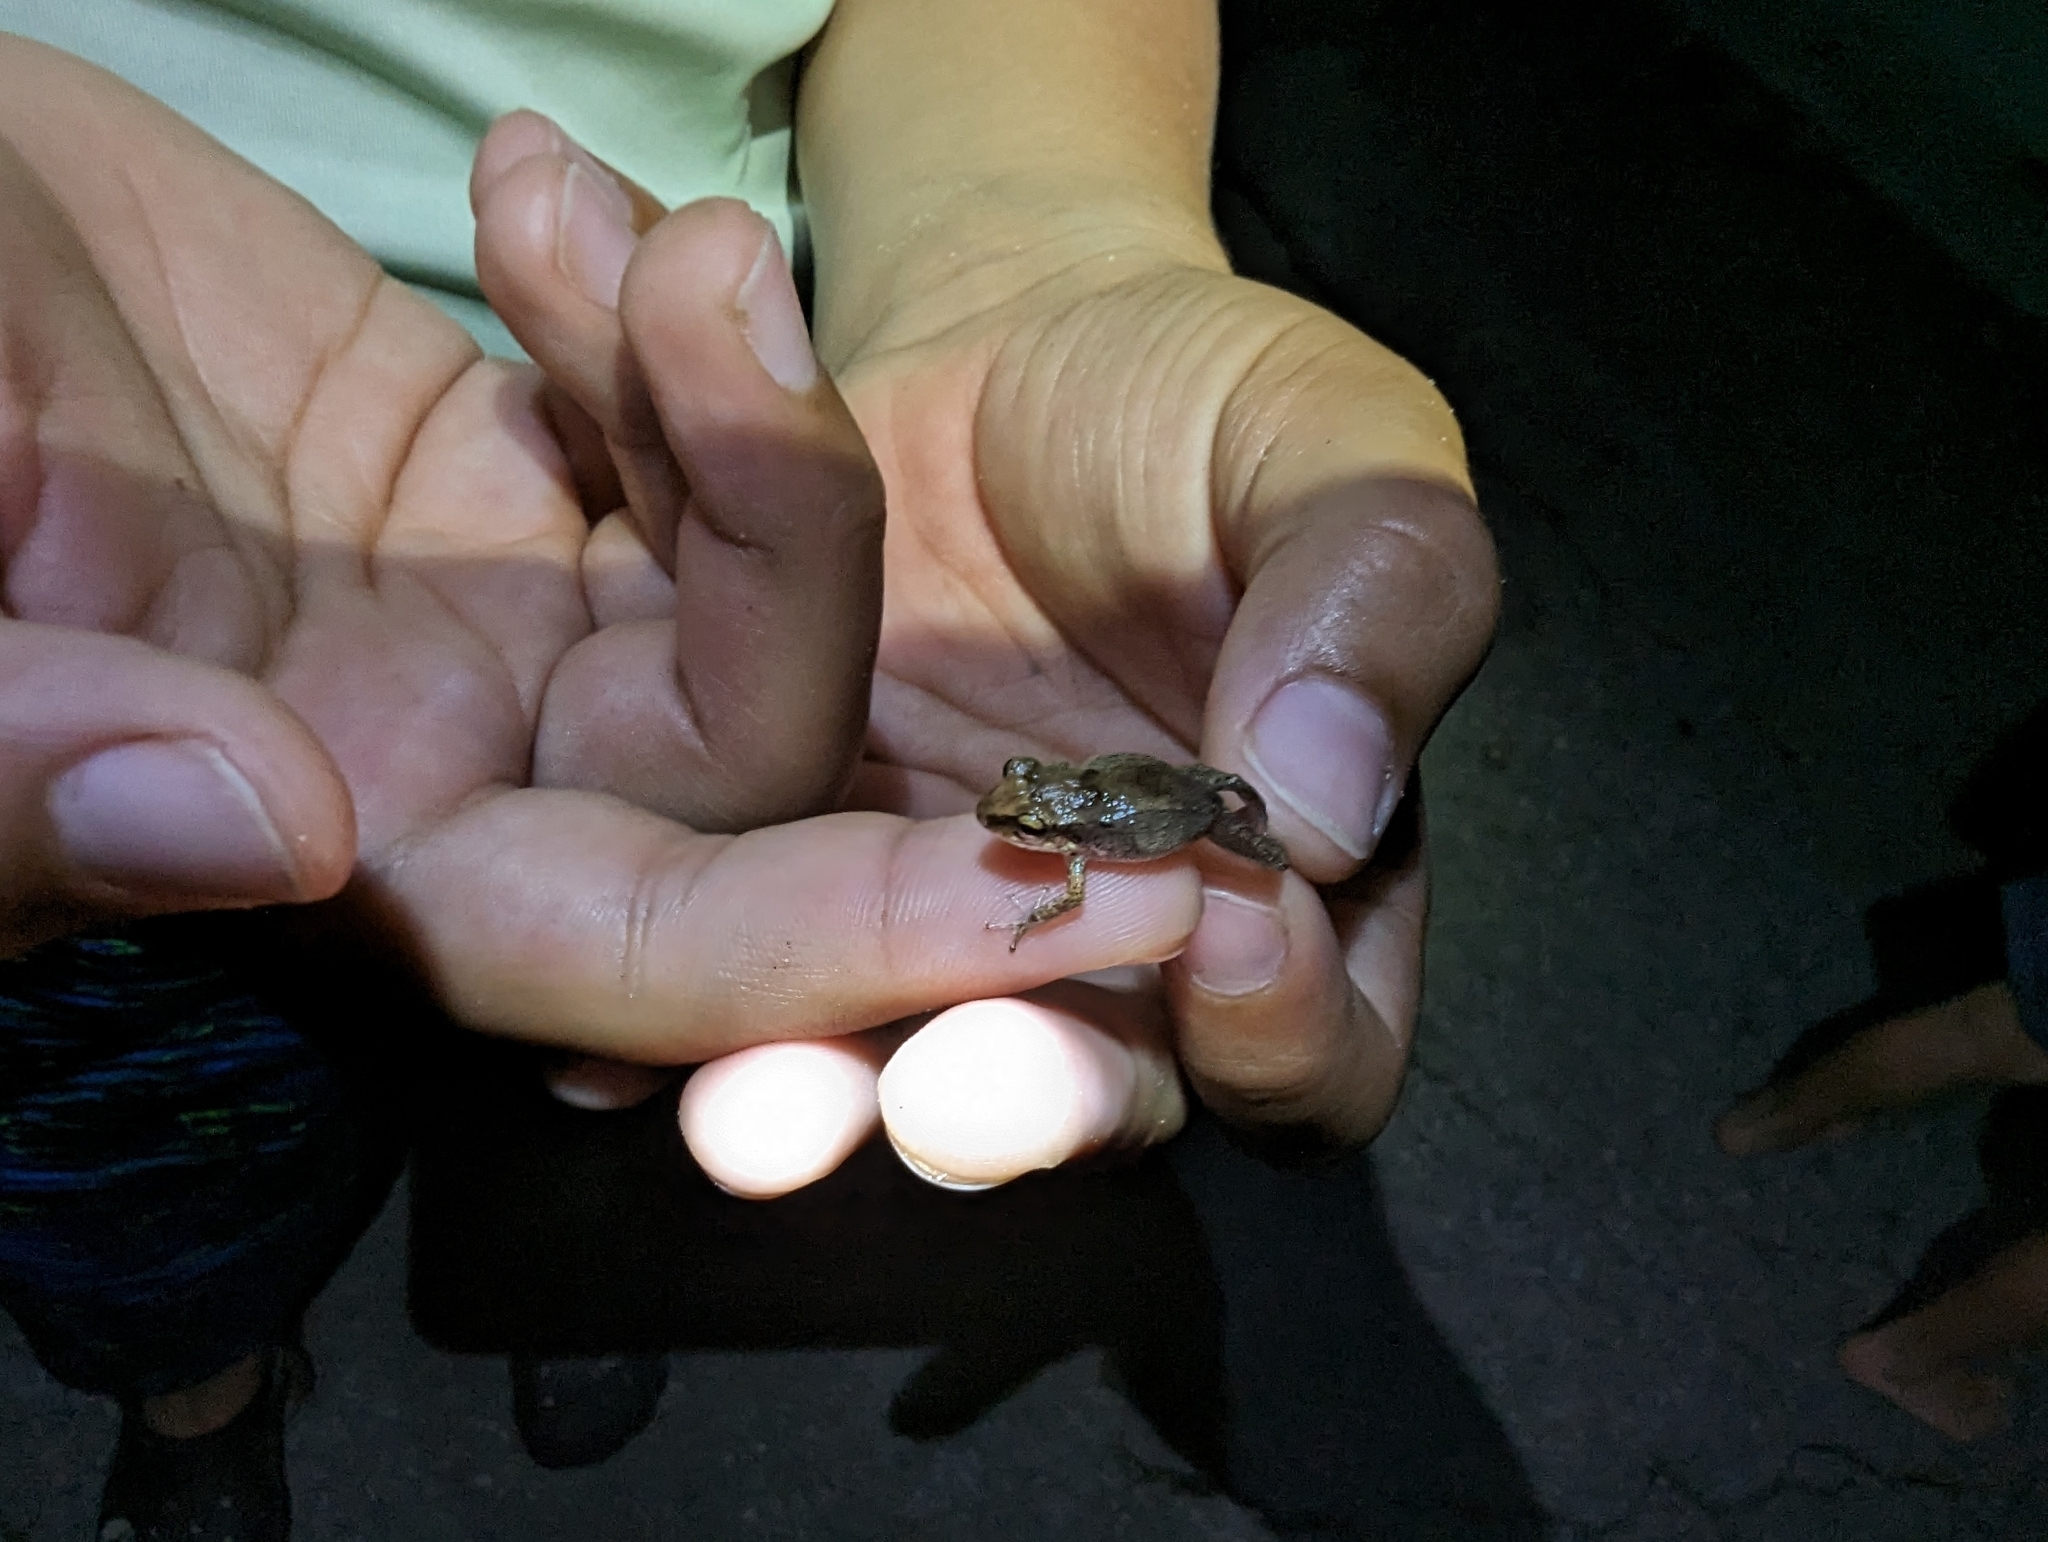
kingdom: Animalia
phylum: Chordata
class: Amphibia
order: Anura
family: Eleutherodactylidae
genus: Eleutherodactylus
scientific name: Eleutherodactylus johnstonei
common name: Johnstone's robber frog
